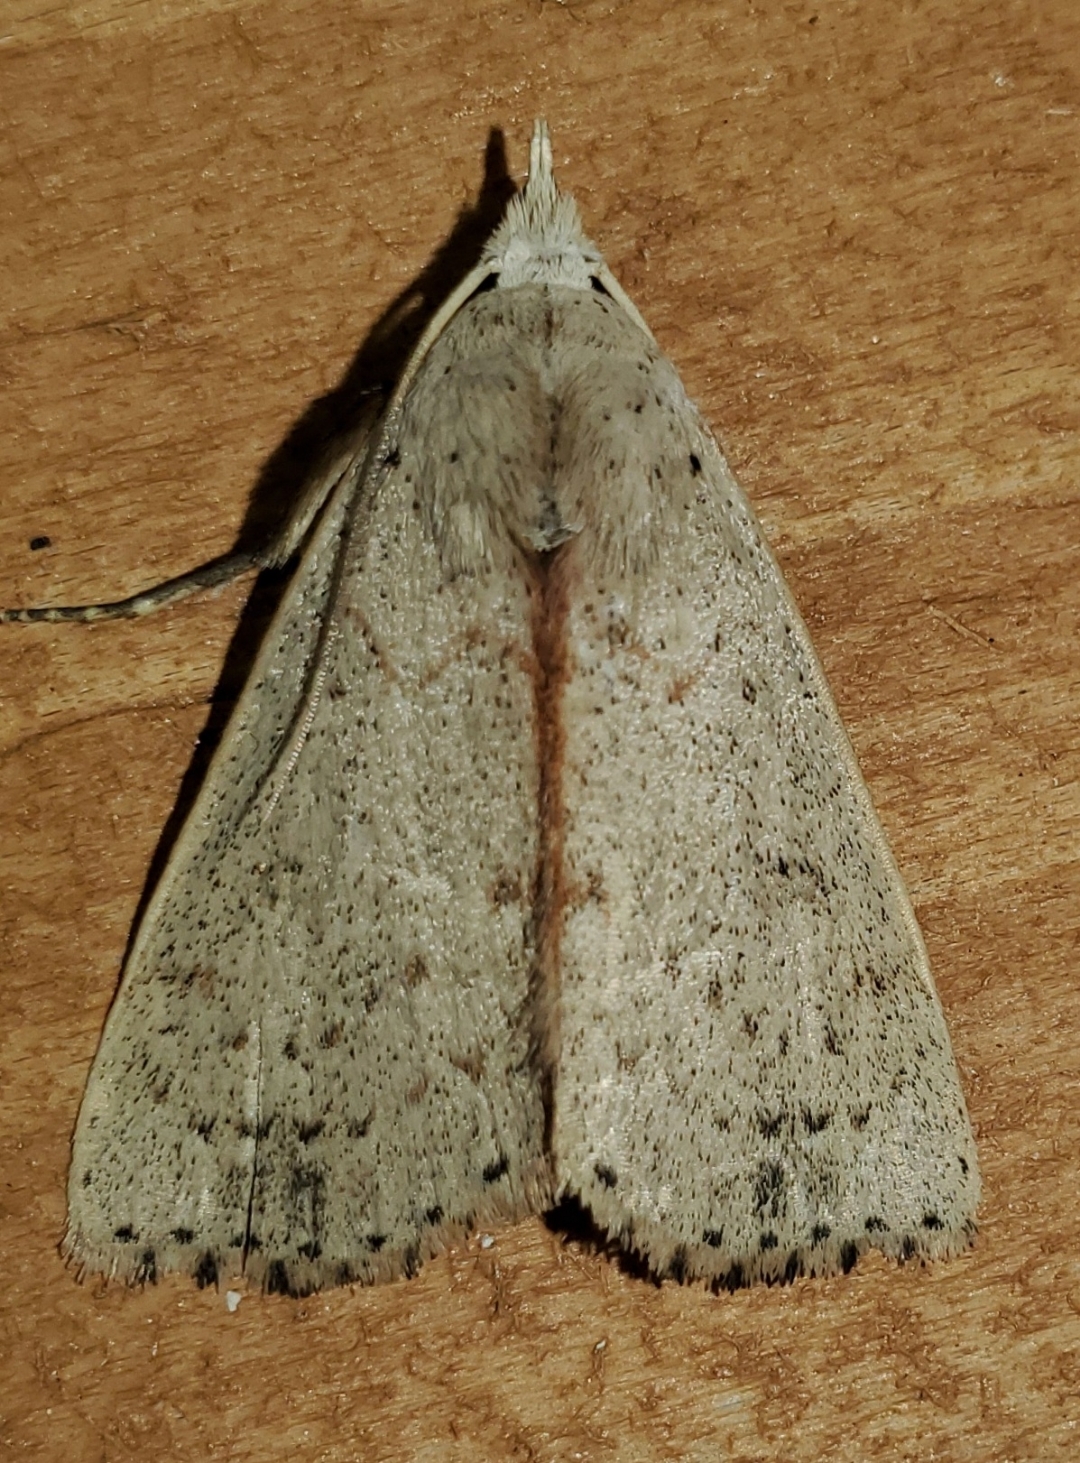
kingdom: Animalia
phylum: Arthropoda
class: Insecta
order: Lepidoptera
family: Erebidae
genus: Scolecocampa
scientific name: Scolecocampa liburna
